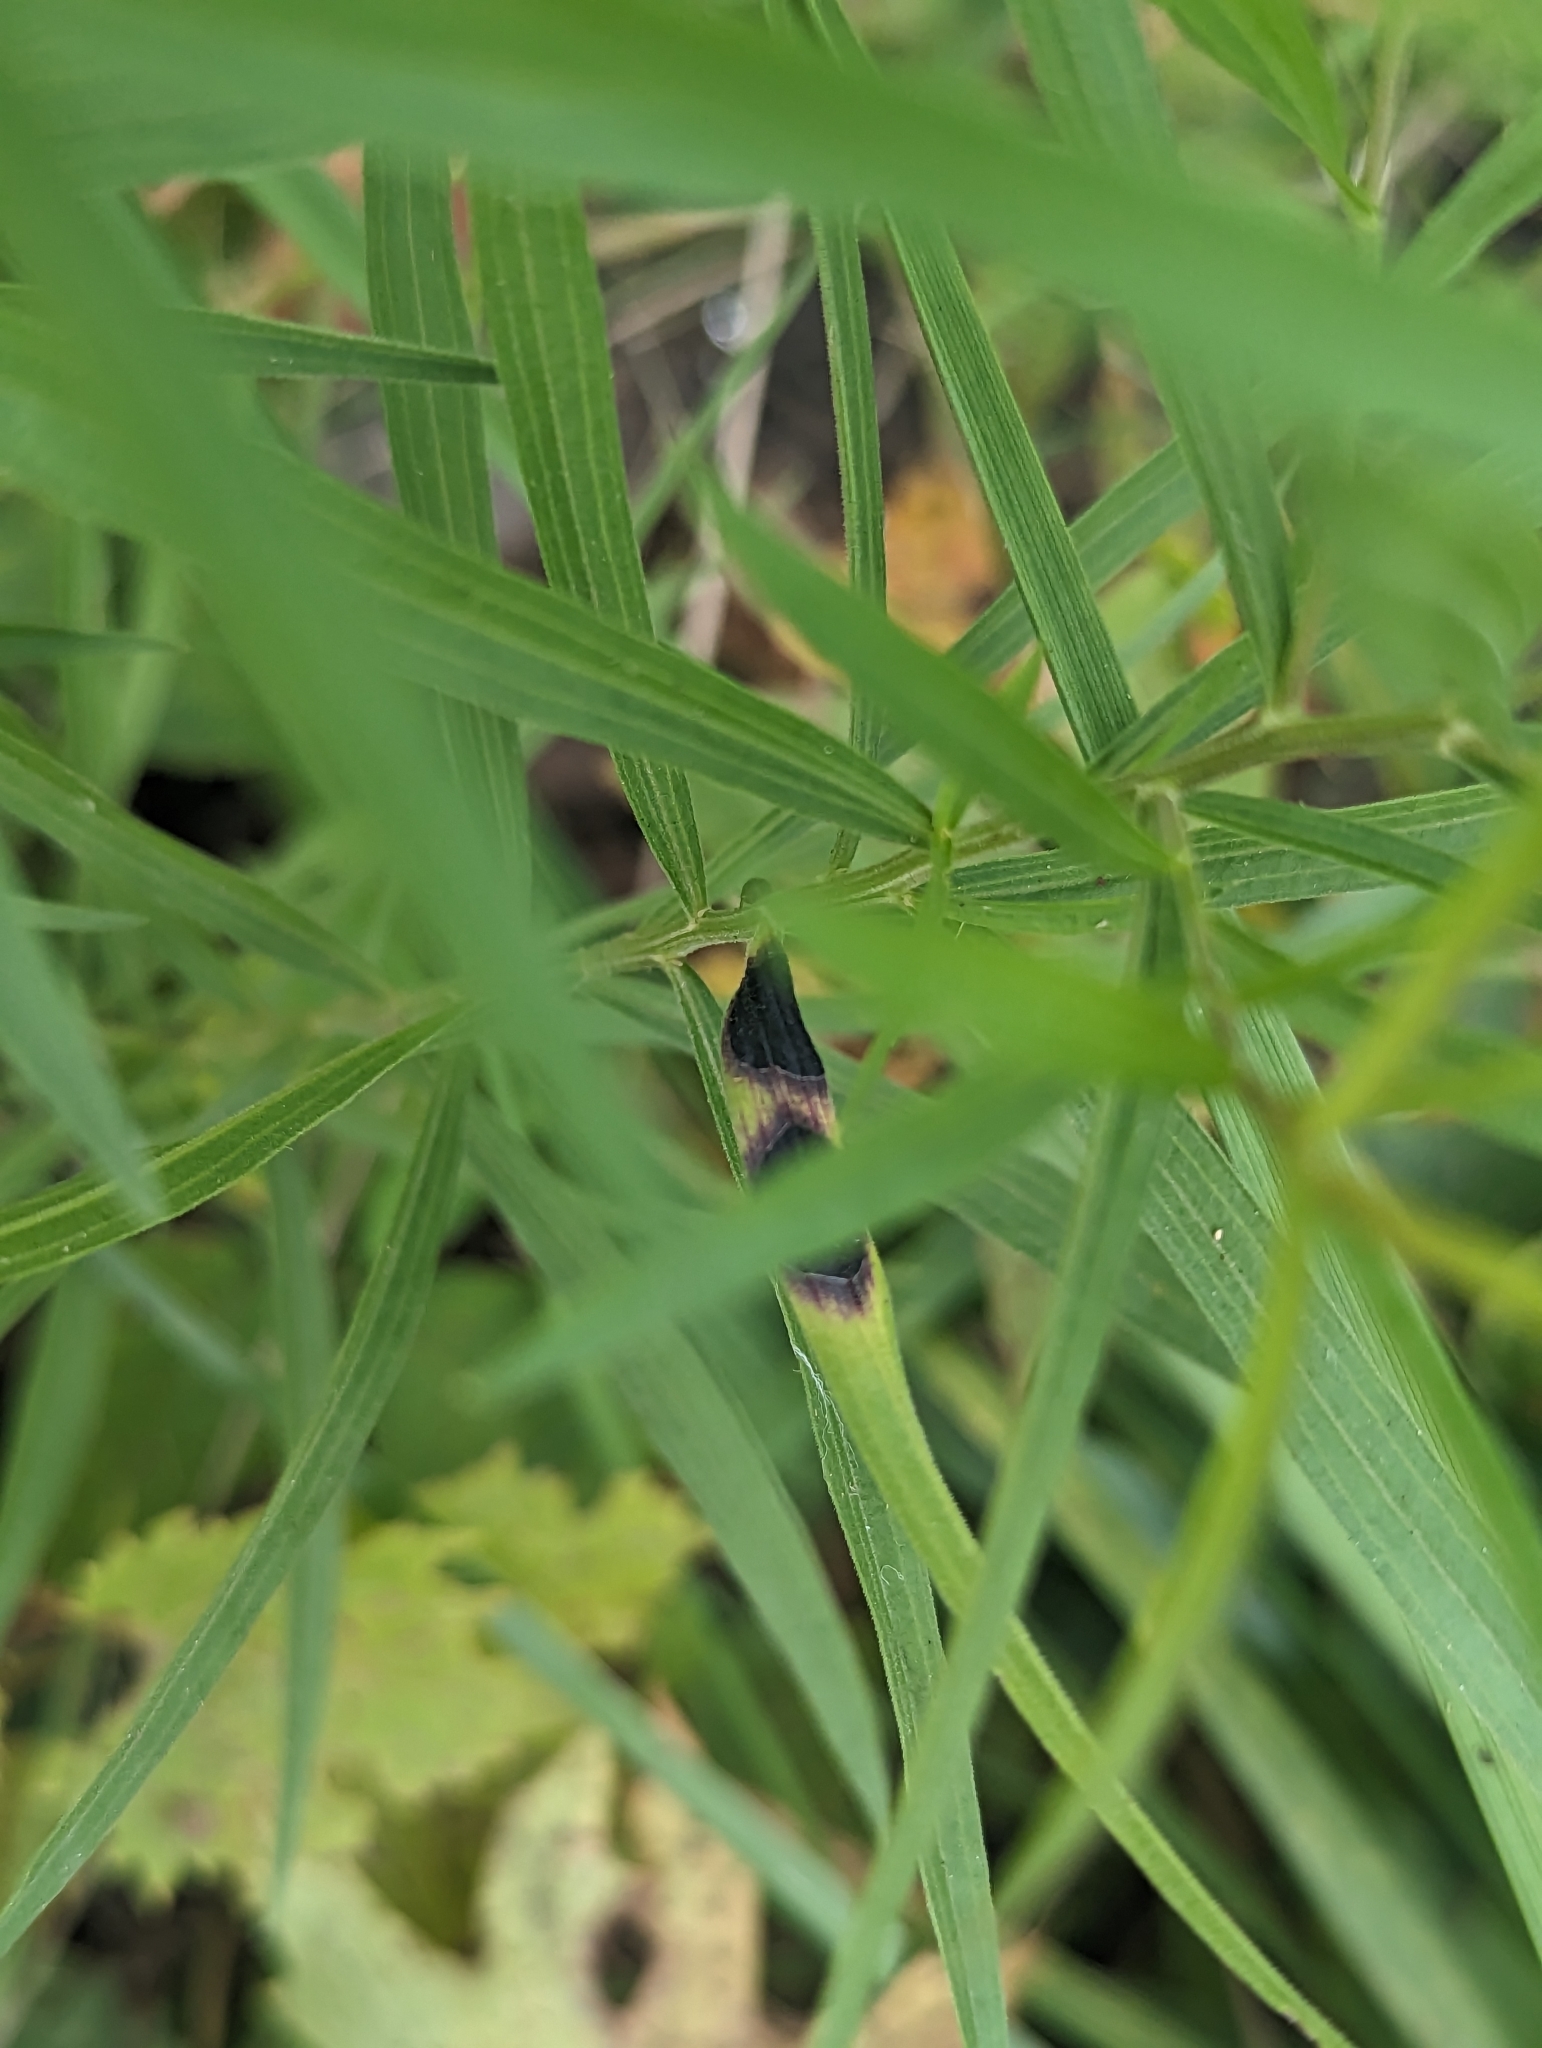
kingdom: Animalia
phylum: Arthropoda
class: Insecta
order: Diptera
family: Cecidomyiidae
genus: Asteromyia
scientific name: Asteromyia euthamiae
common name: Euthamia leaf gall midge
